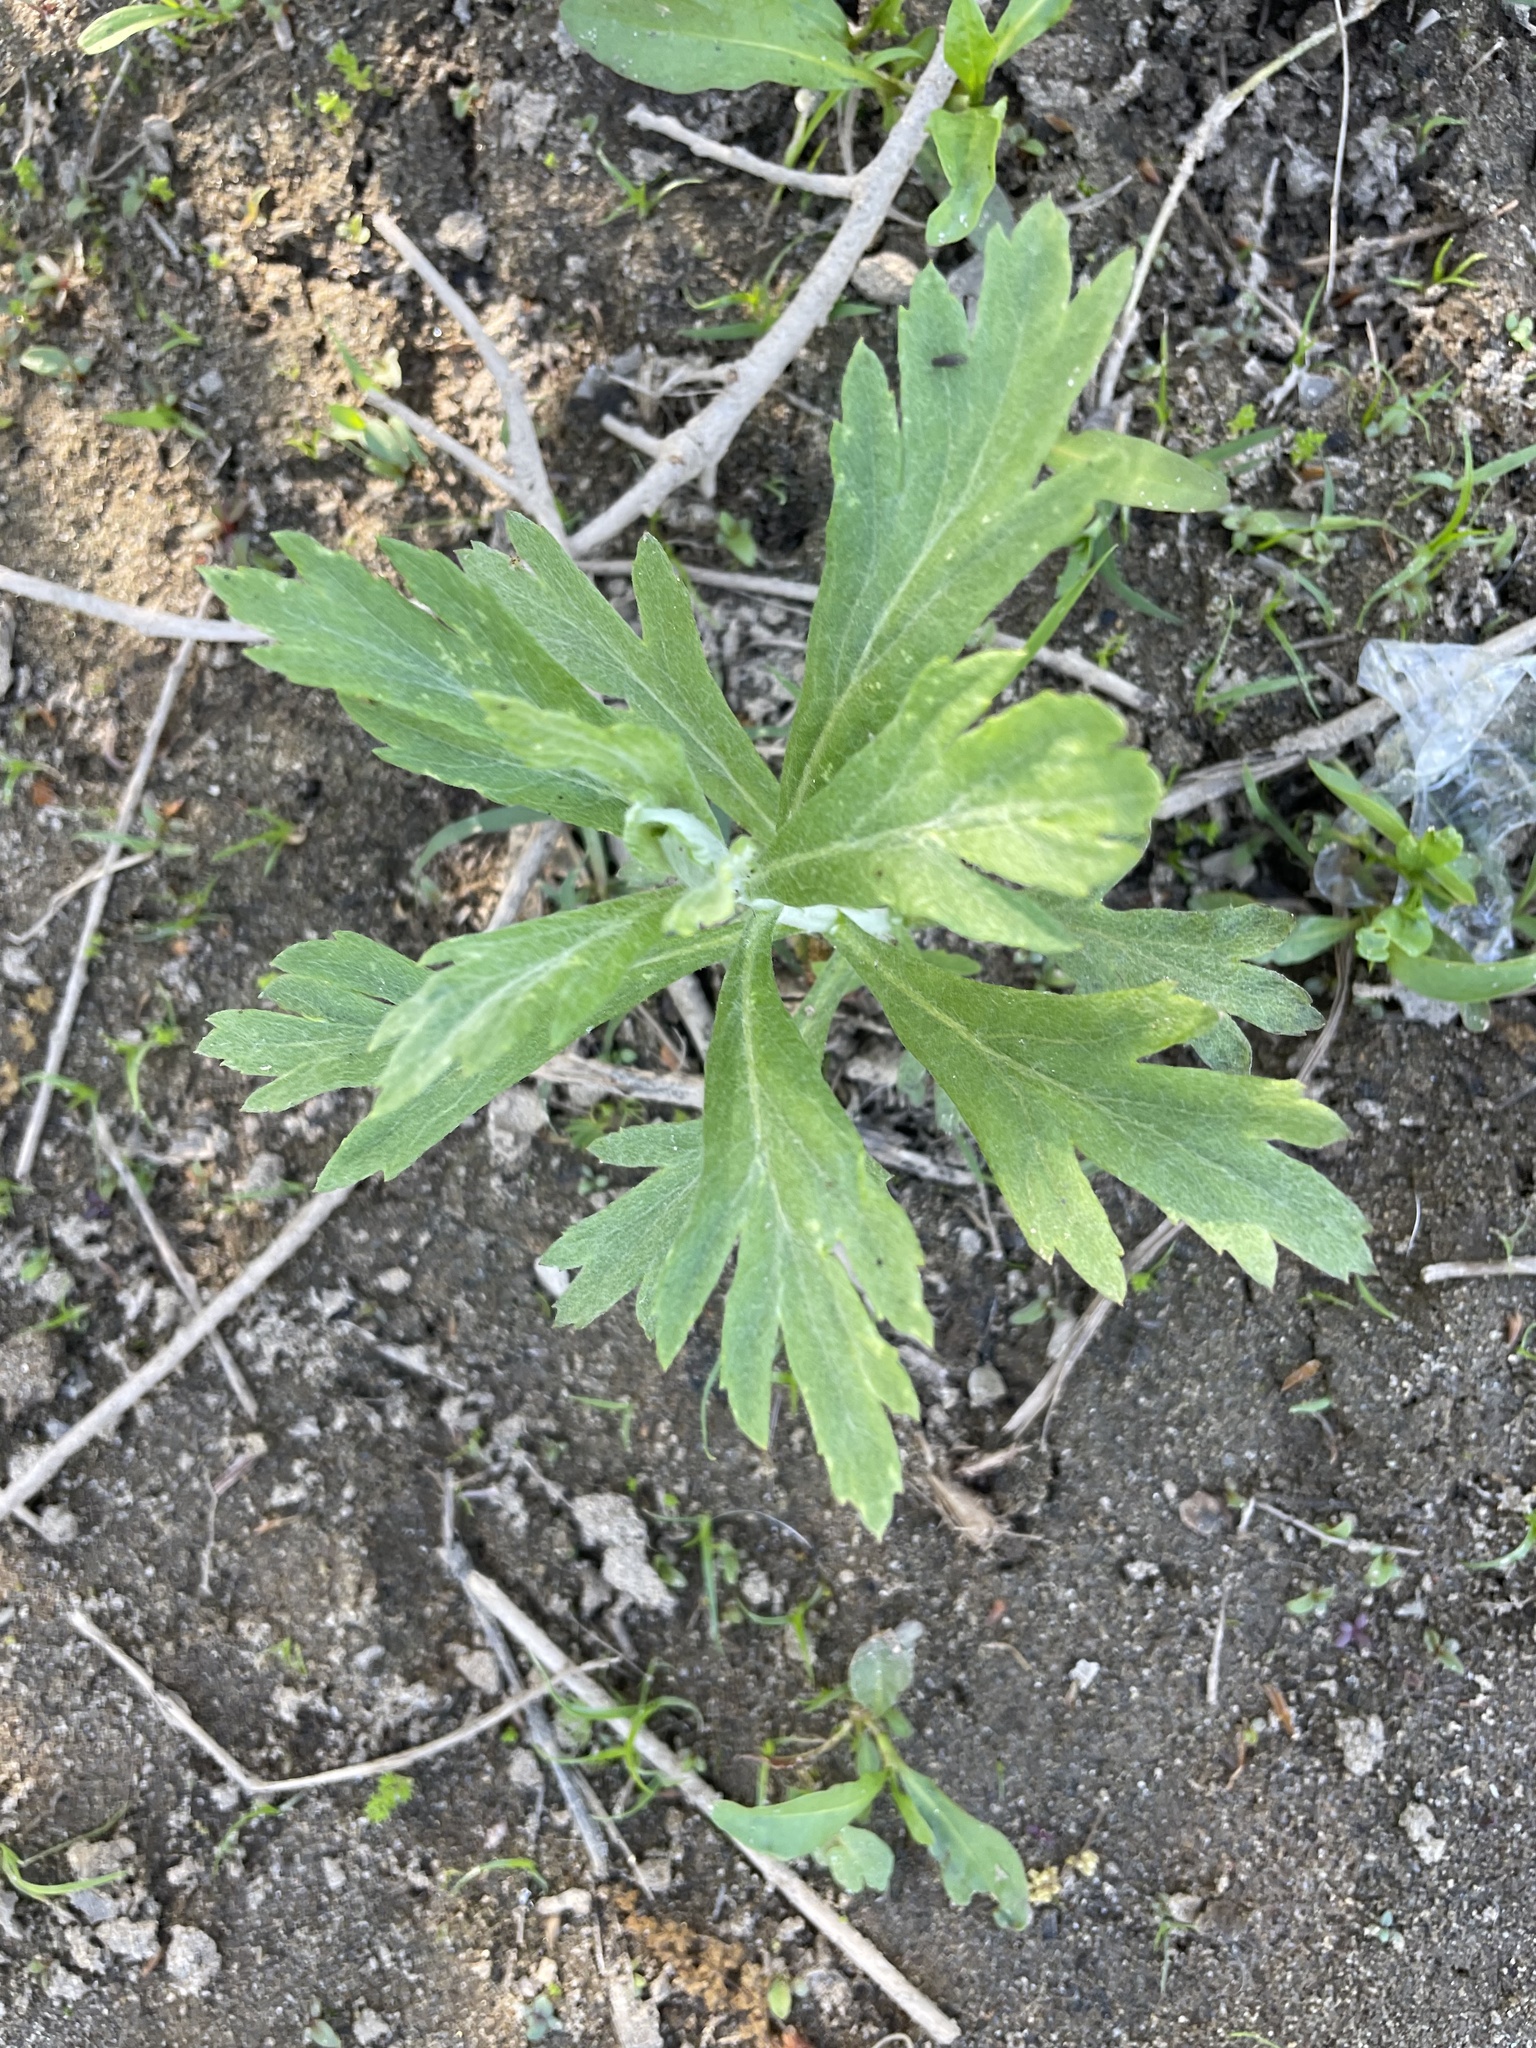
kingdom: Plantae
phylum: Tracheophyta
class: Magnoliopsida
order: Asterales
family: Asteraceae
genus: Artemisia
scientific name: Artemisia douglasiana
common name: Northwest mugwort
